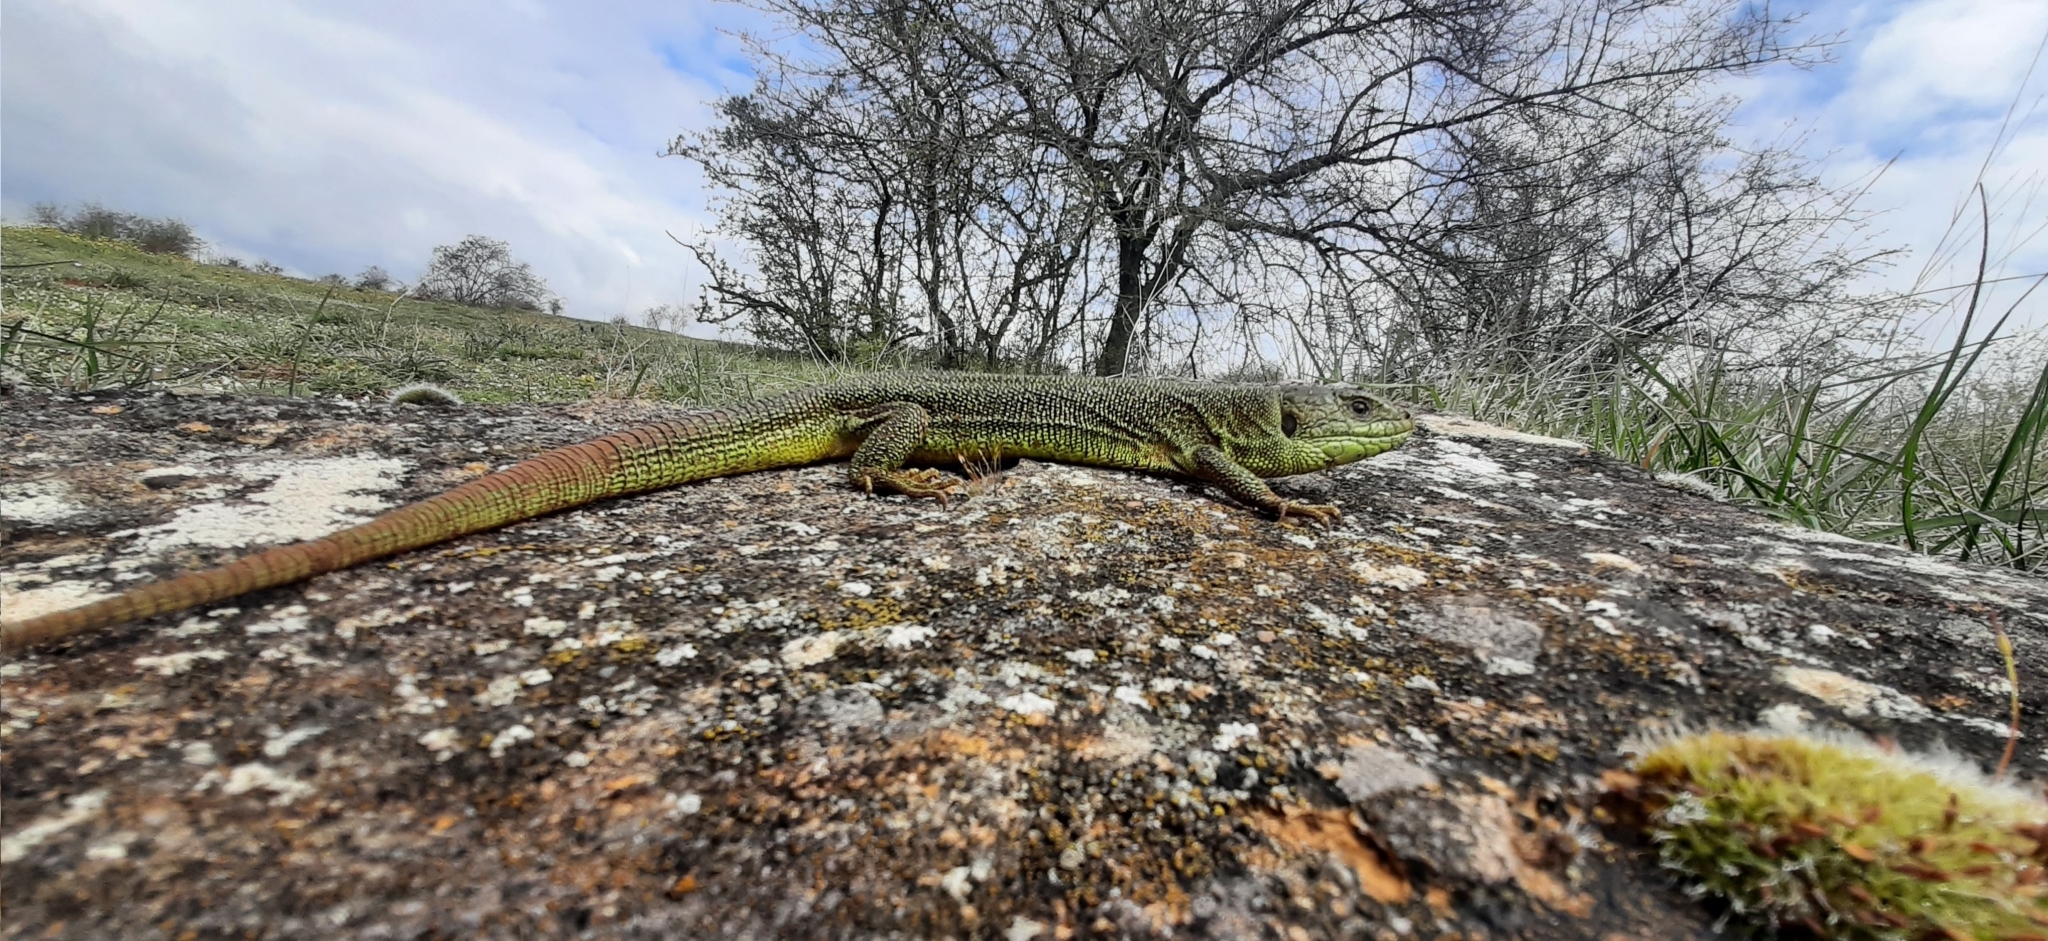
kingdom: Animalia
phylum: Chordata
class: Squamata
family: Lacertidae
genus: Lacerta
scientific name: Lacerta bilineata
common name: Western green lizard
